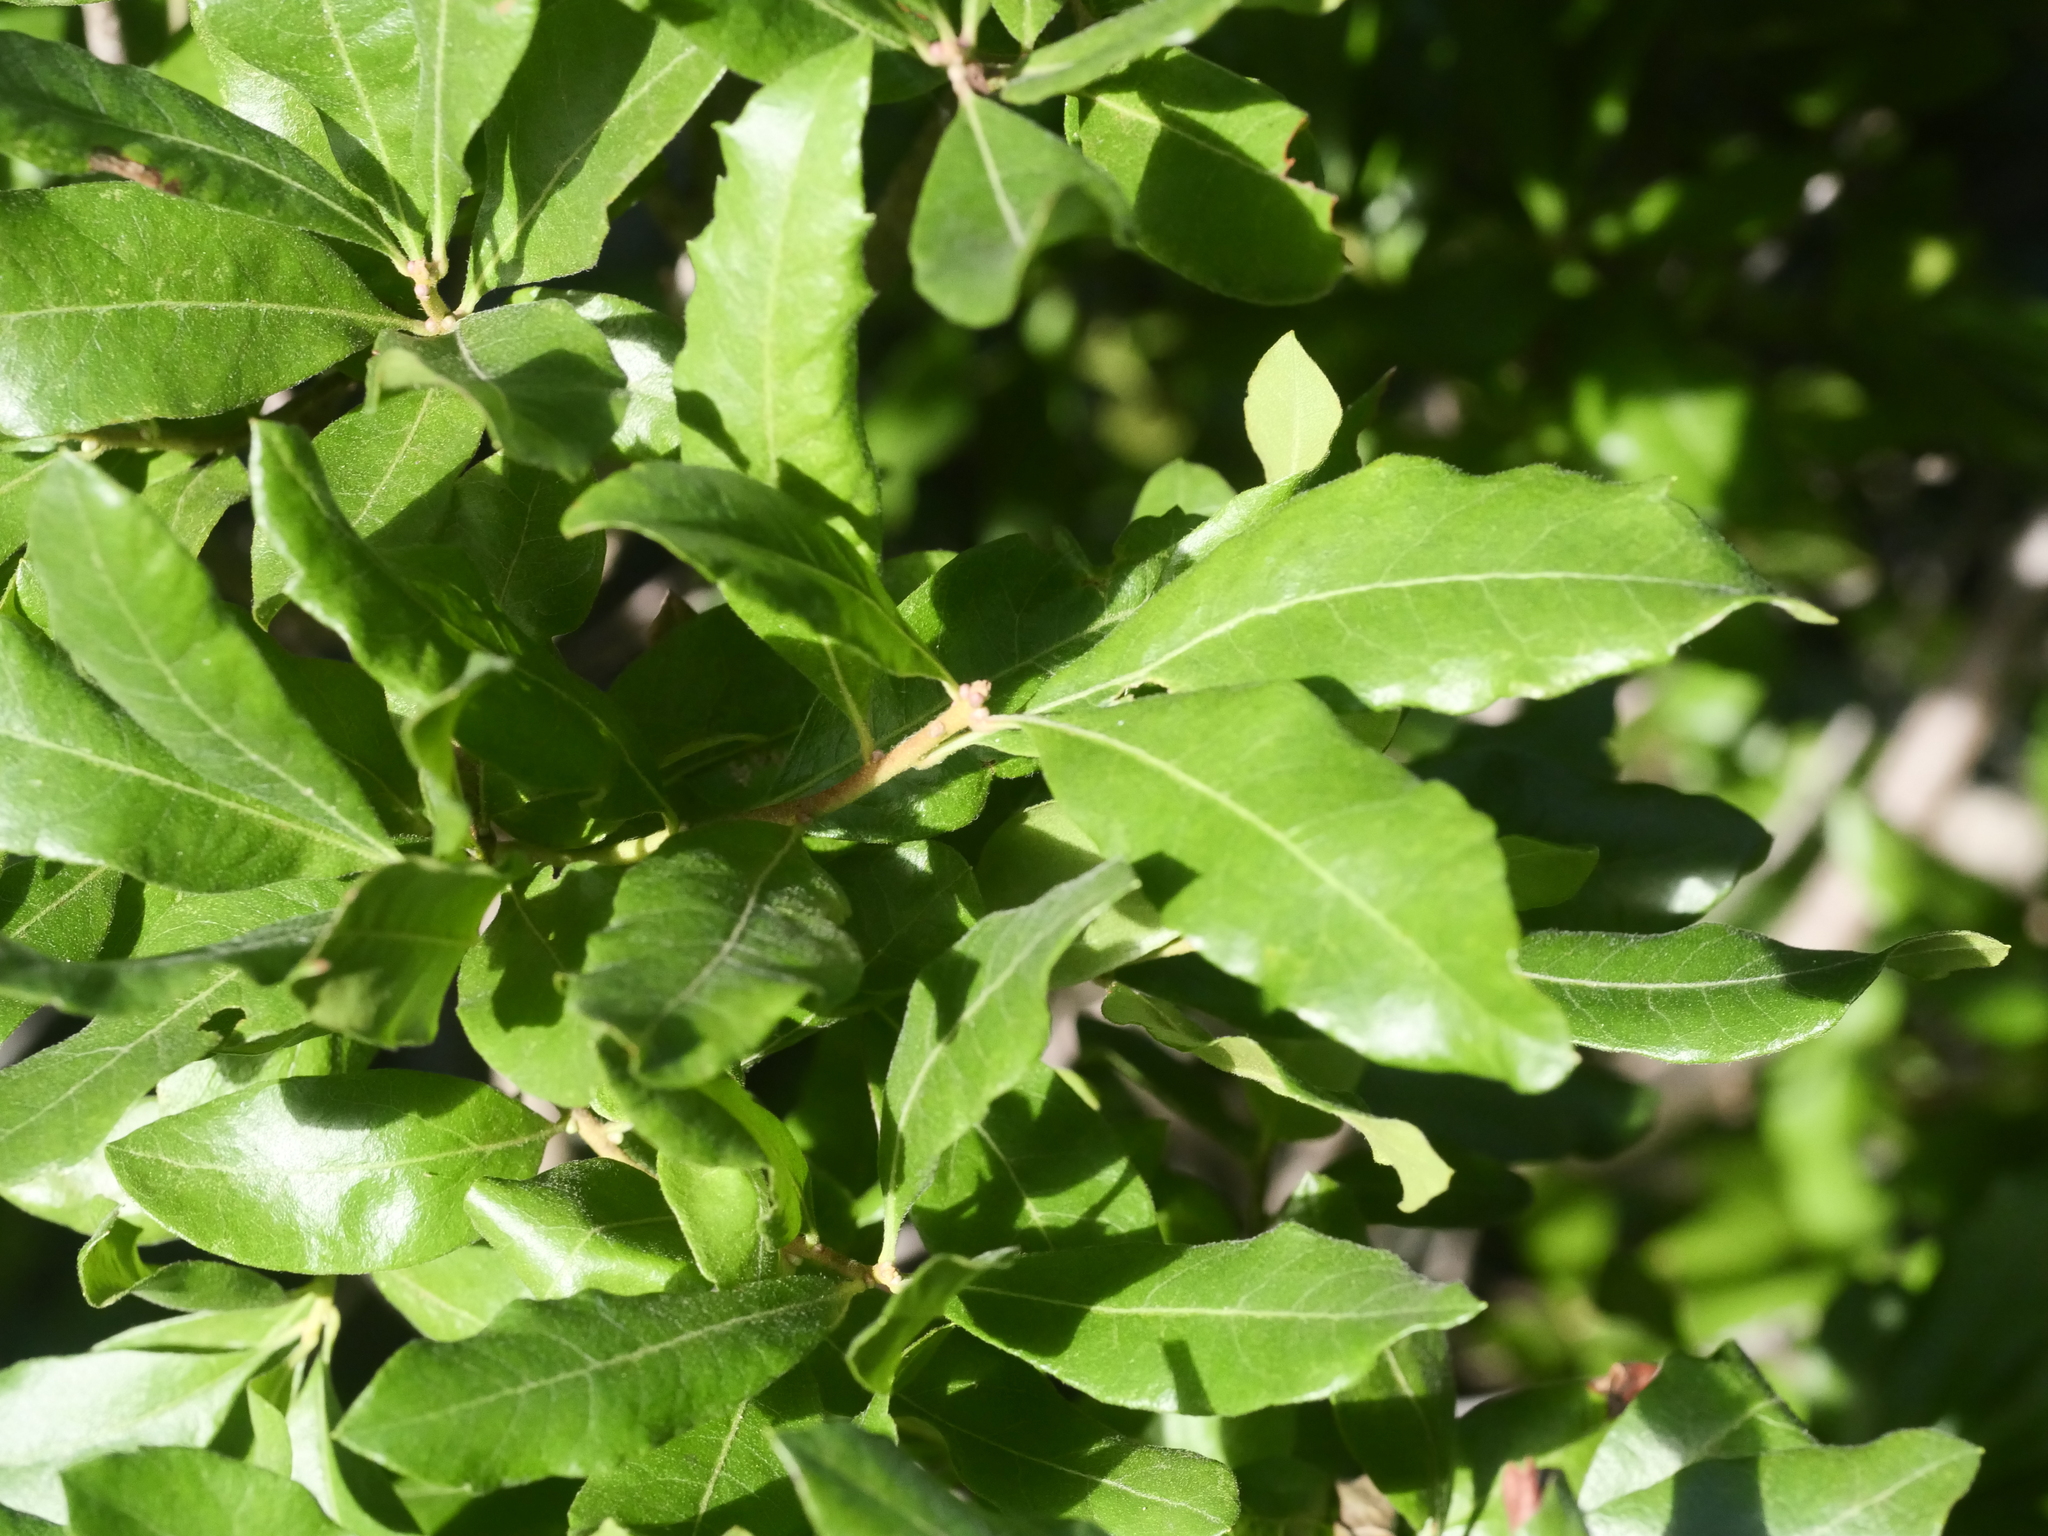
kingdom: Plantae
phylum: Tracheophyta
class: Magnoliopsida
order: Fagales
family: Myricaceae
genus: Morella
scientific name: Morella pensylvanica
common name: Northern bayberry
